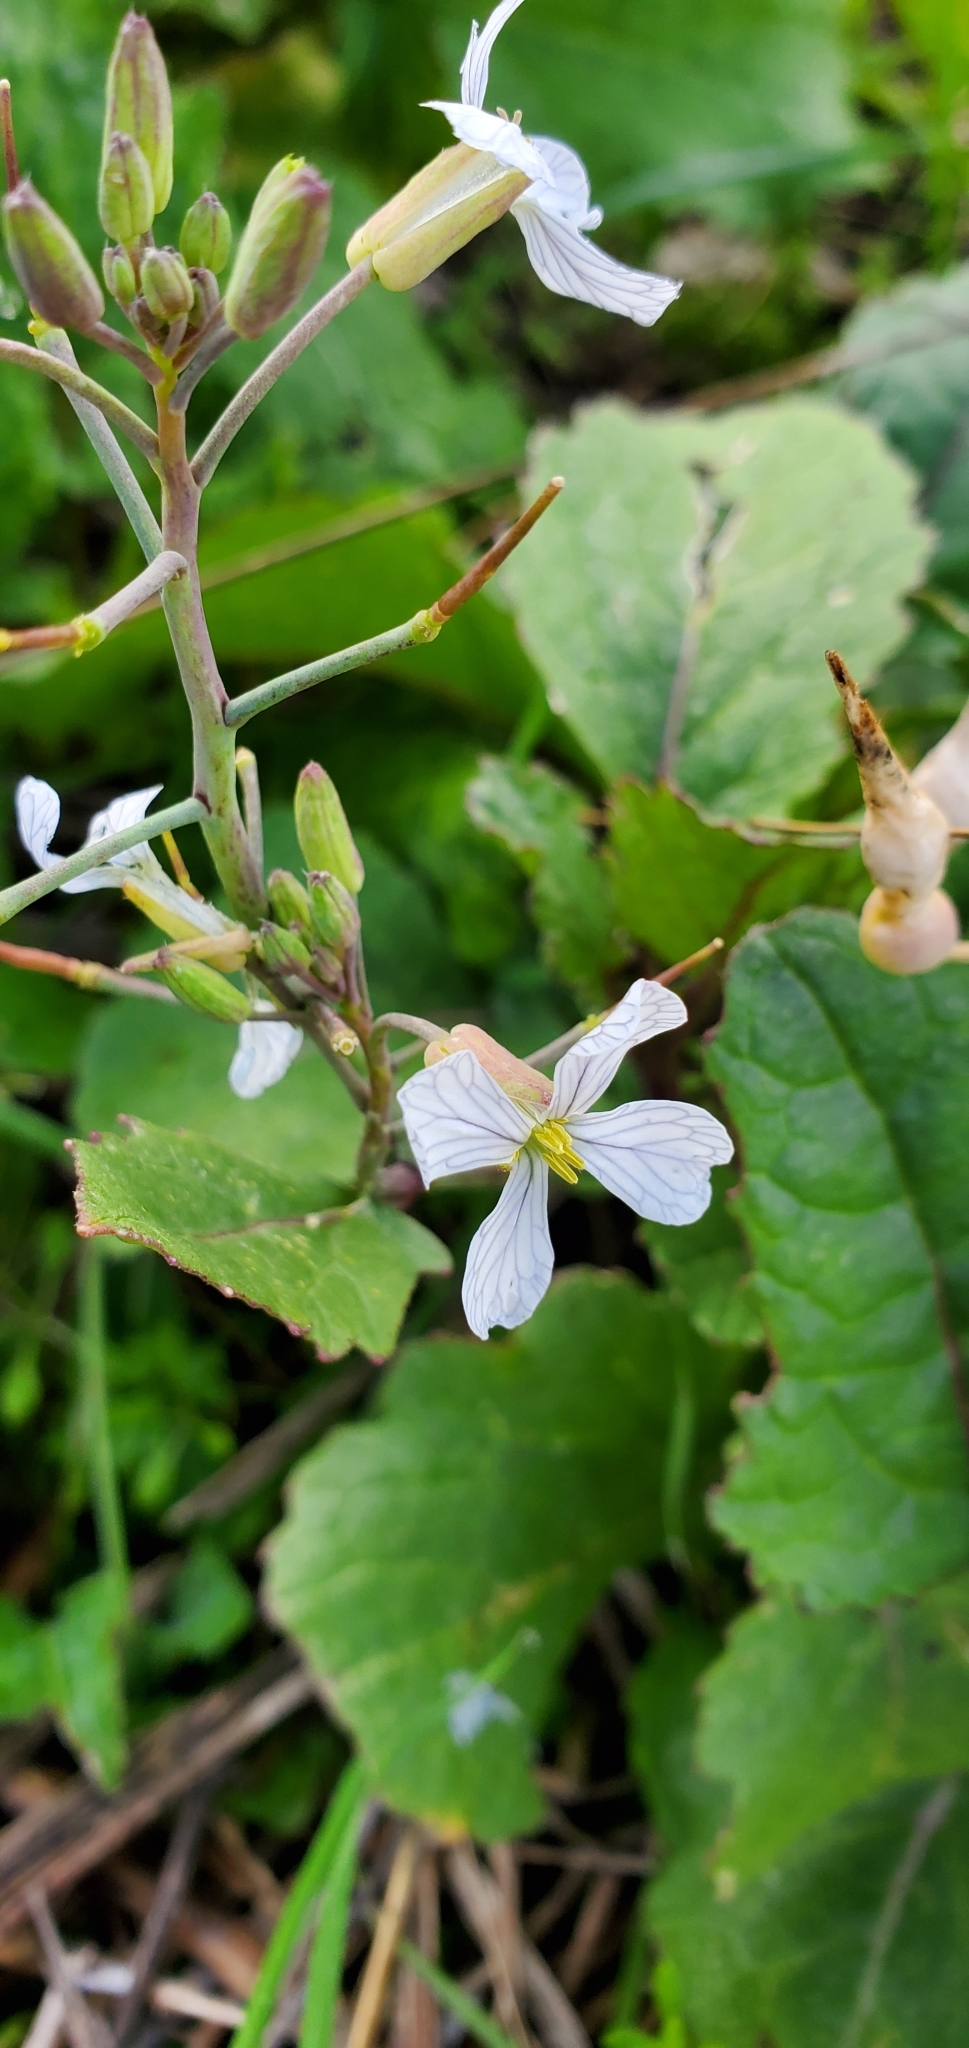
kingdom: Plantae
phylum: Tracheophyta
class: Magnoliopsida
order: Brassicales
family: Brassicaceae
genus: Raphanus
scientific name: Raphanus sativus
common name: Cultivated radish
